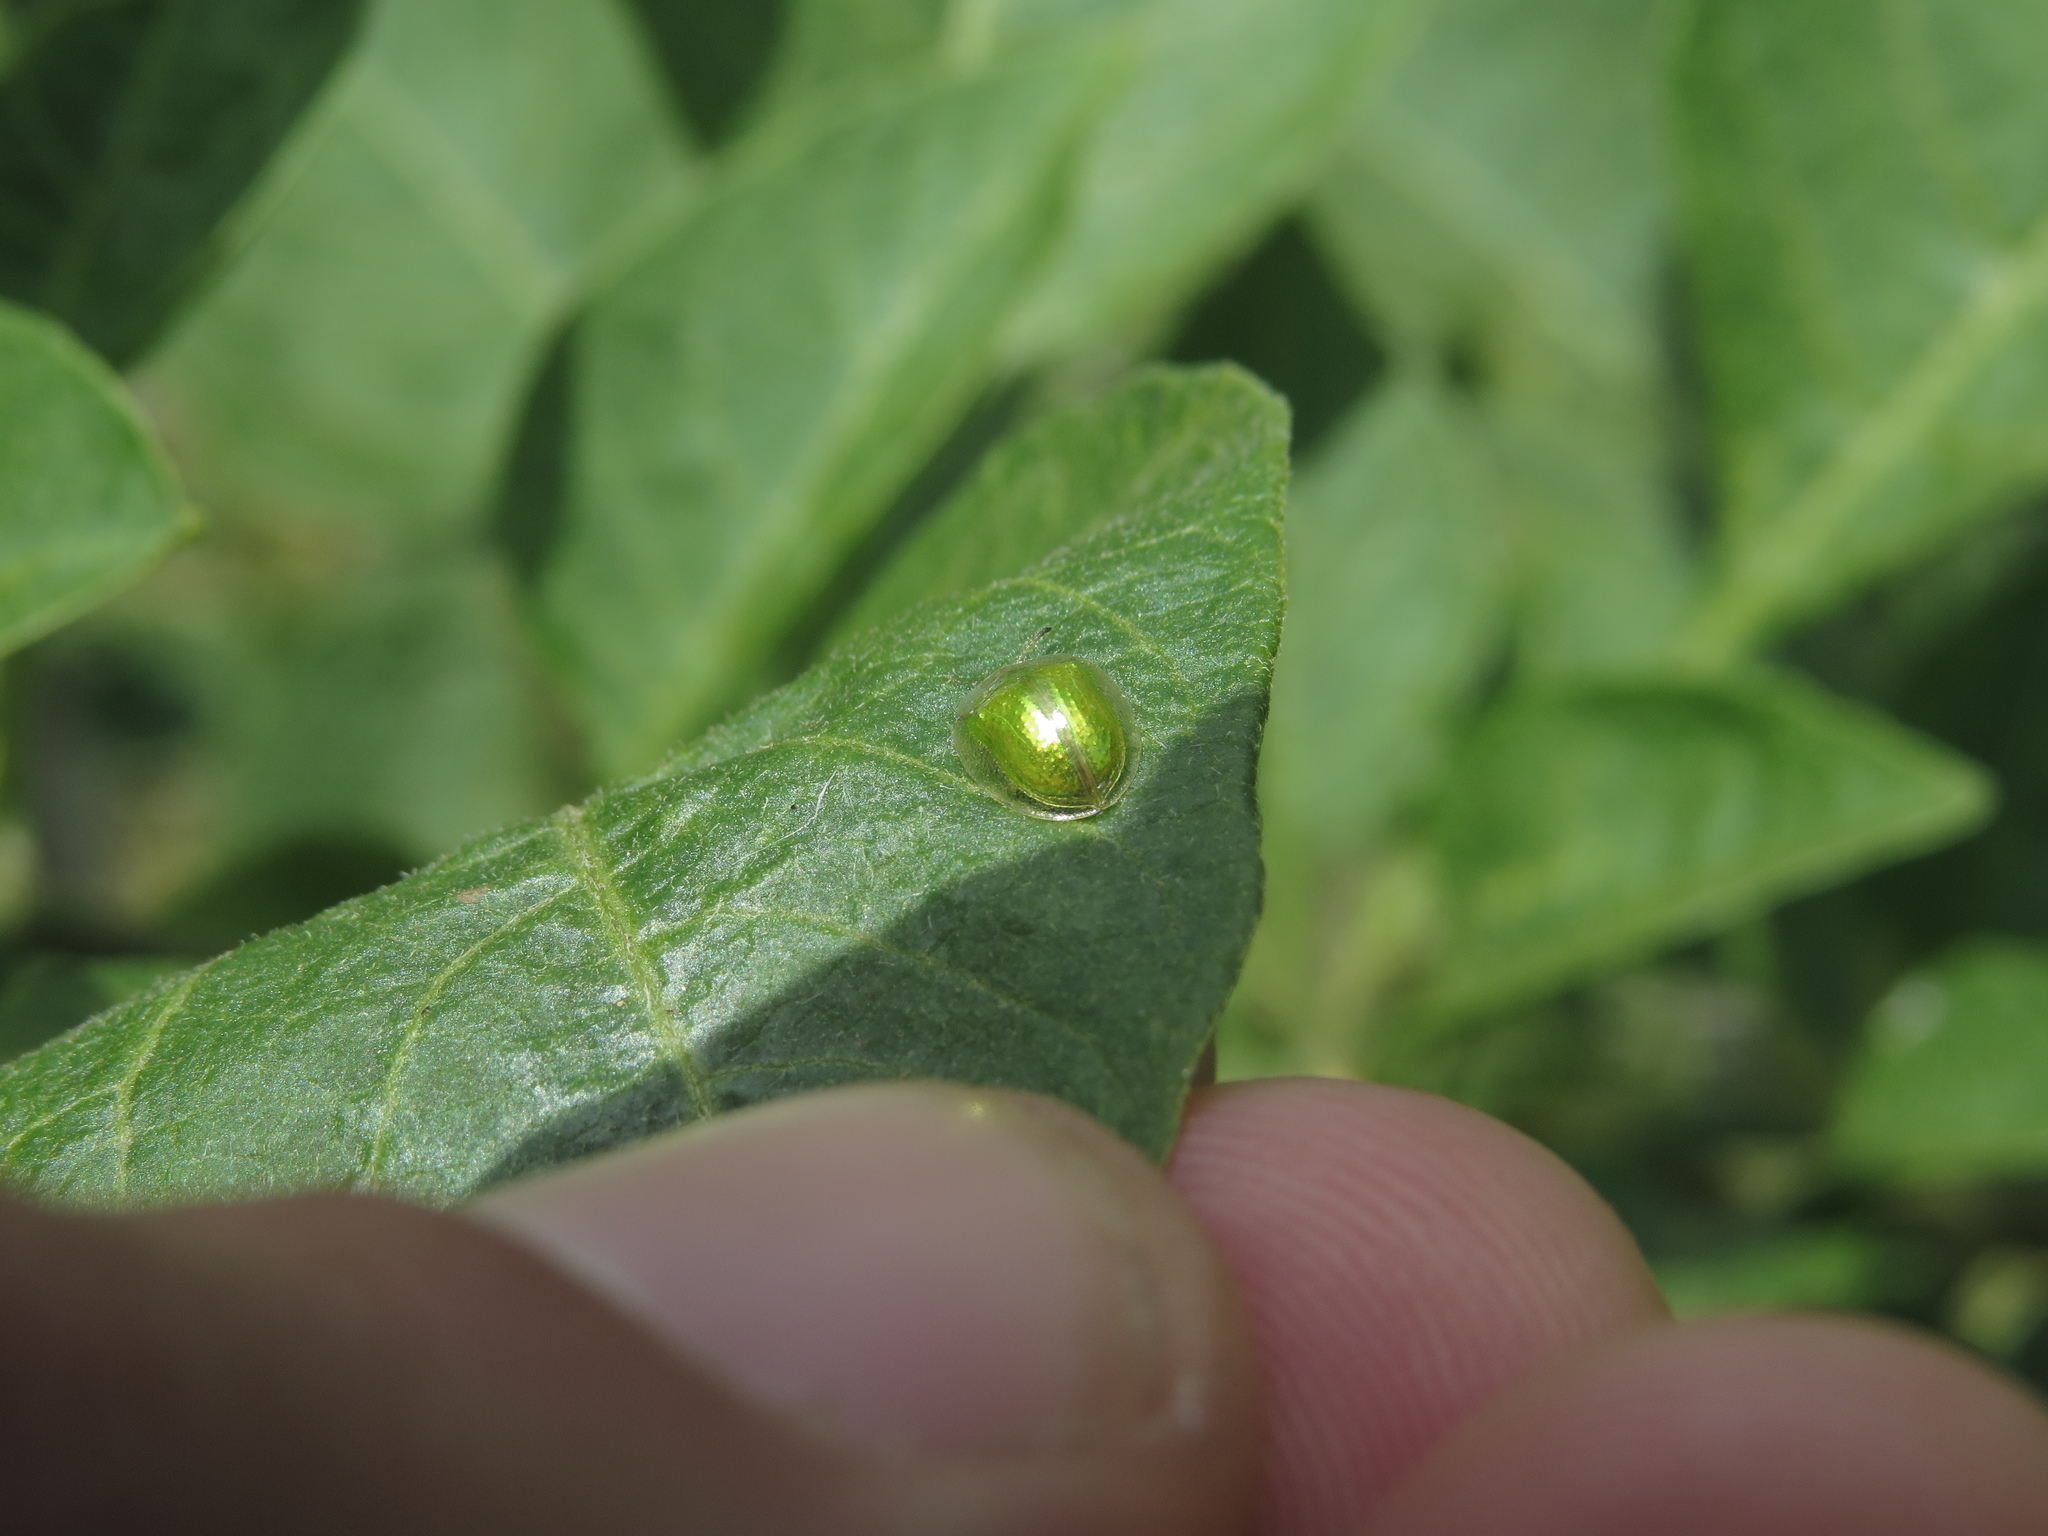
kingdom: Animalia
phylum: Arthropoda
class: Insecta
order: Coleoptera
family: Chrysomelidae
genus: Plagiometriona
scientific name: Plagiometriona herbea
